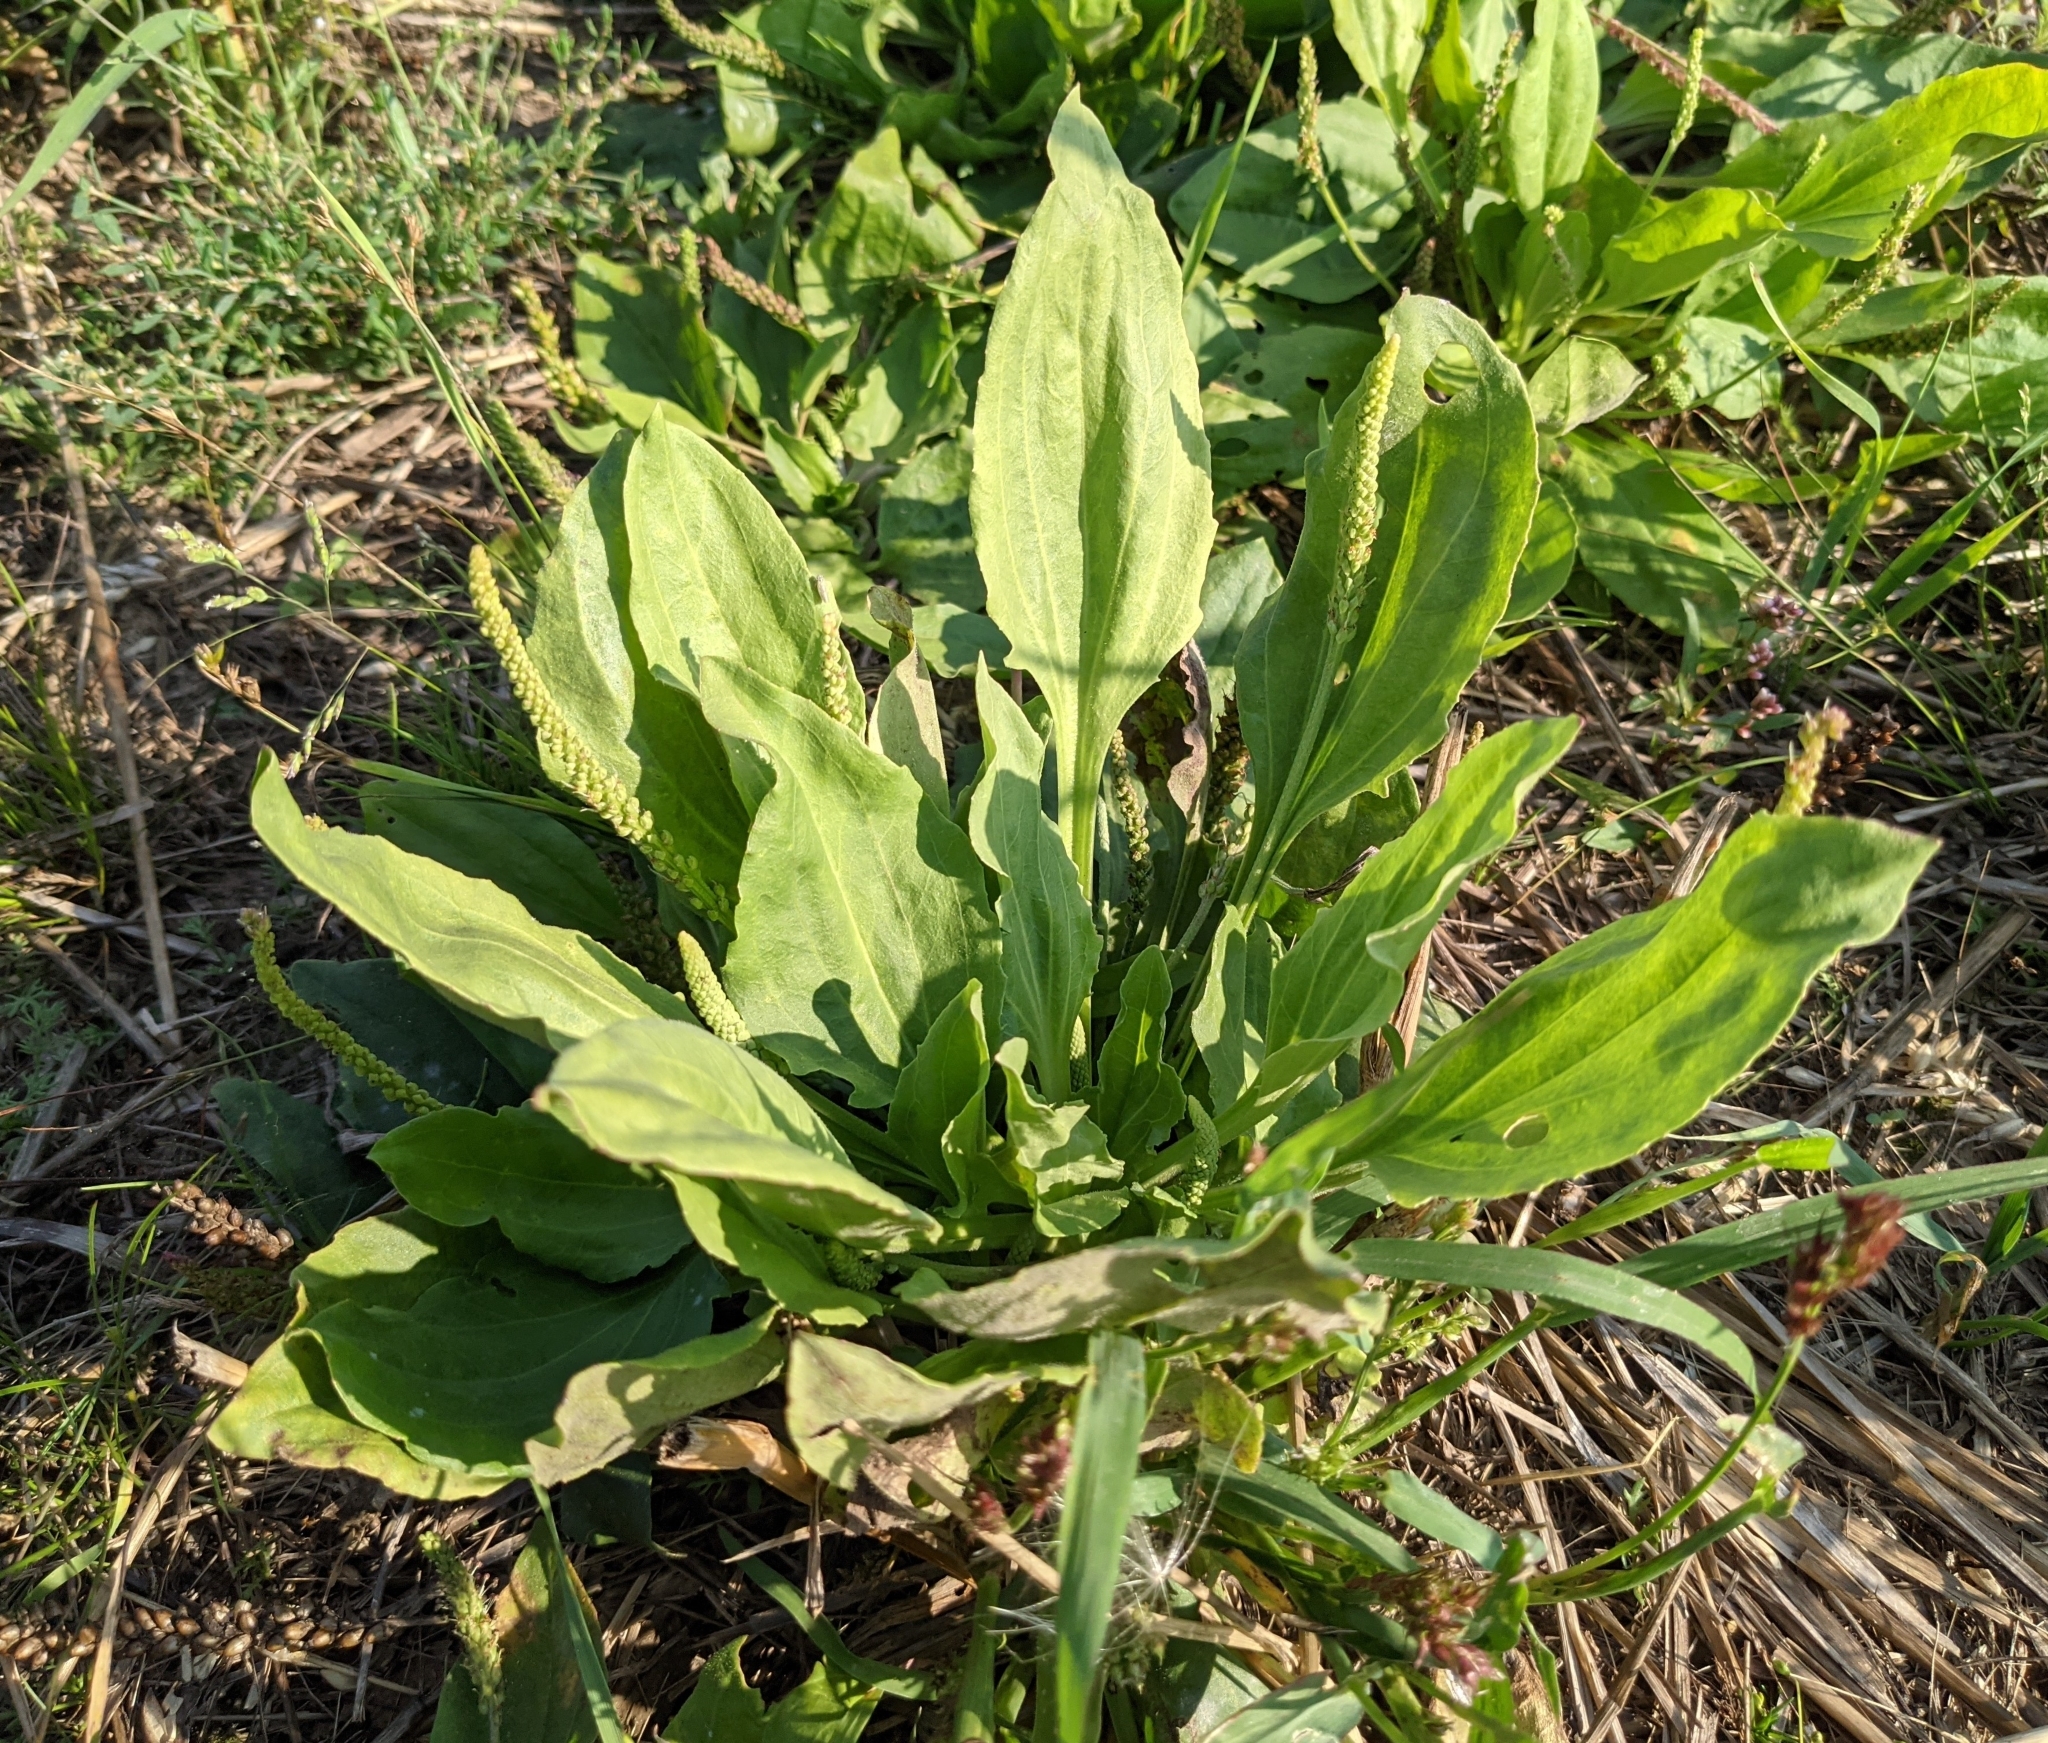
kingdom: Plantae
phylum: Tracheophyta
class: Magnoliopsida
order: Lamiales
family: Plantaginaceae
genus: Plantago
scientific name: Plantago major
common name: Common plantain
